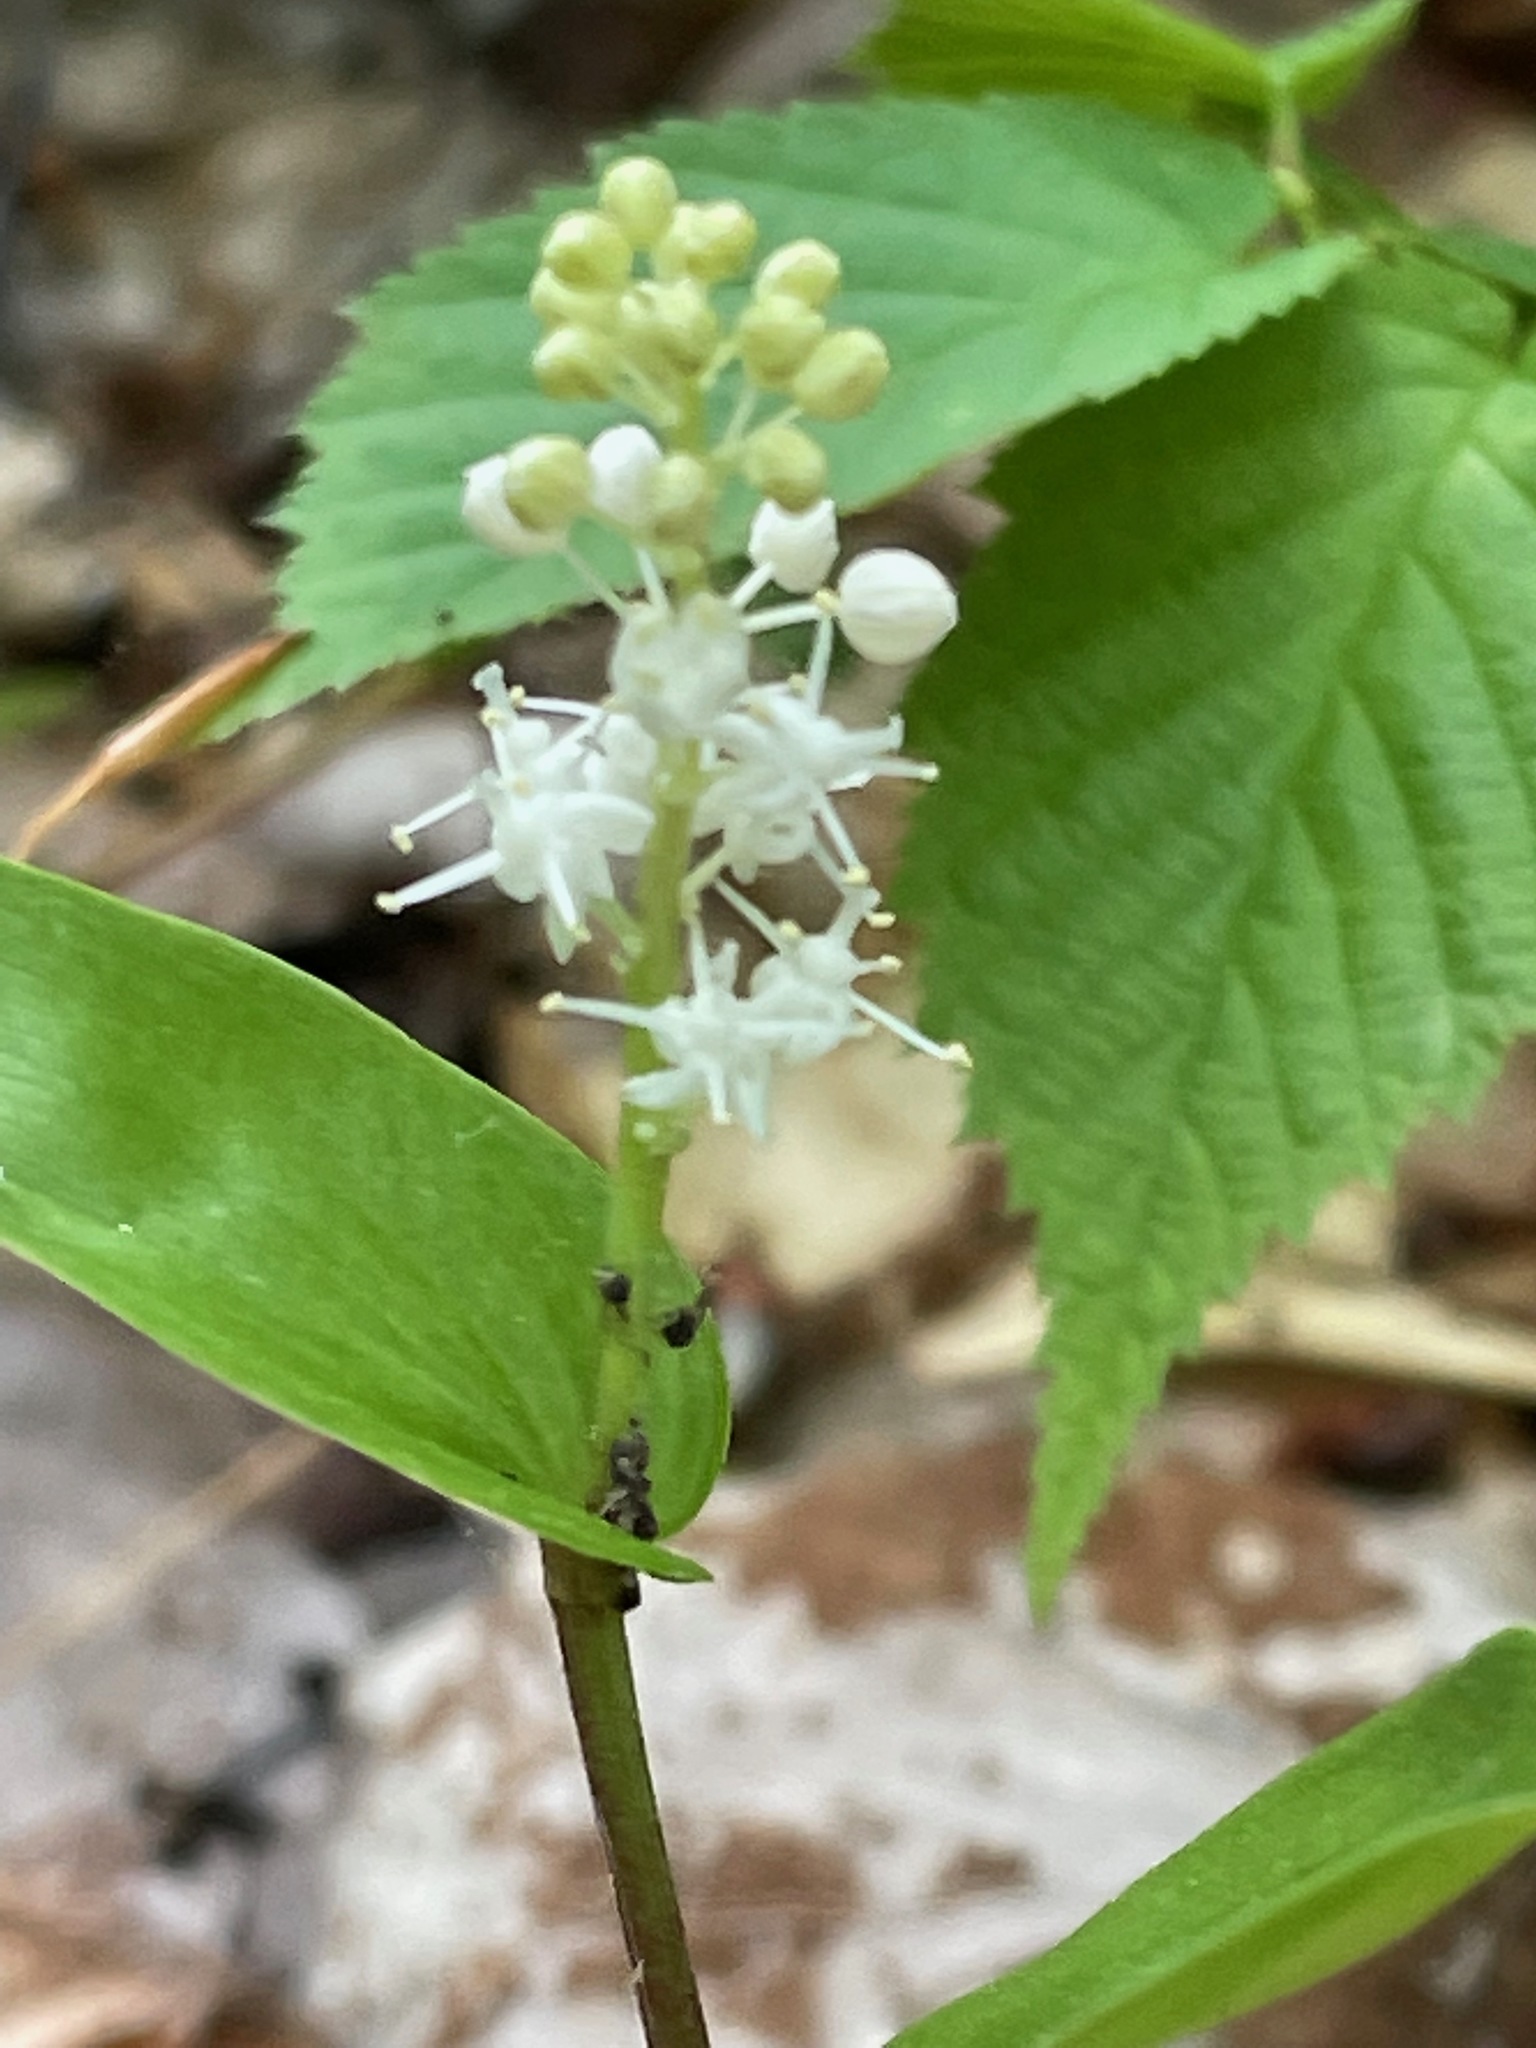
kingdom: Plantae
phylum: Tracheophyta
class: Liliopsida
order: Asparagales
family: Asparagaceae
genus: Maianthemum
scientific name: Maianthemum canadense
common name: False lily-of-the-valley
